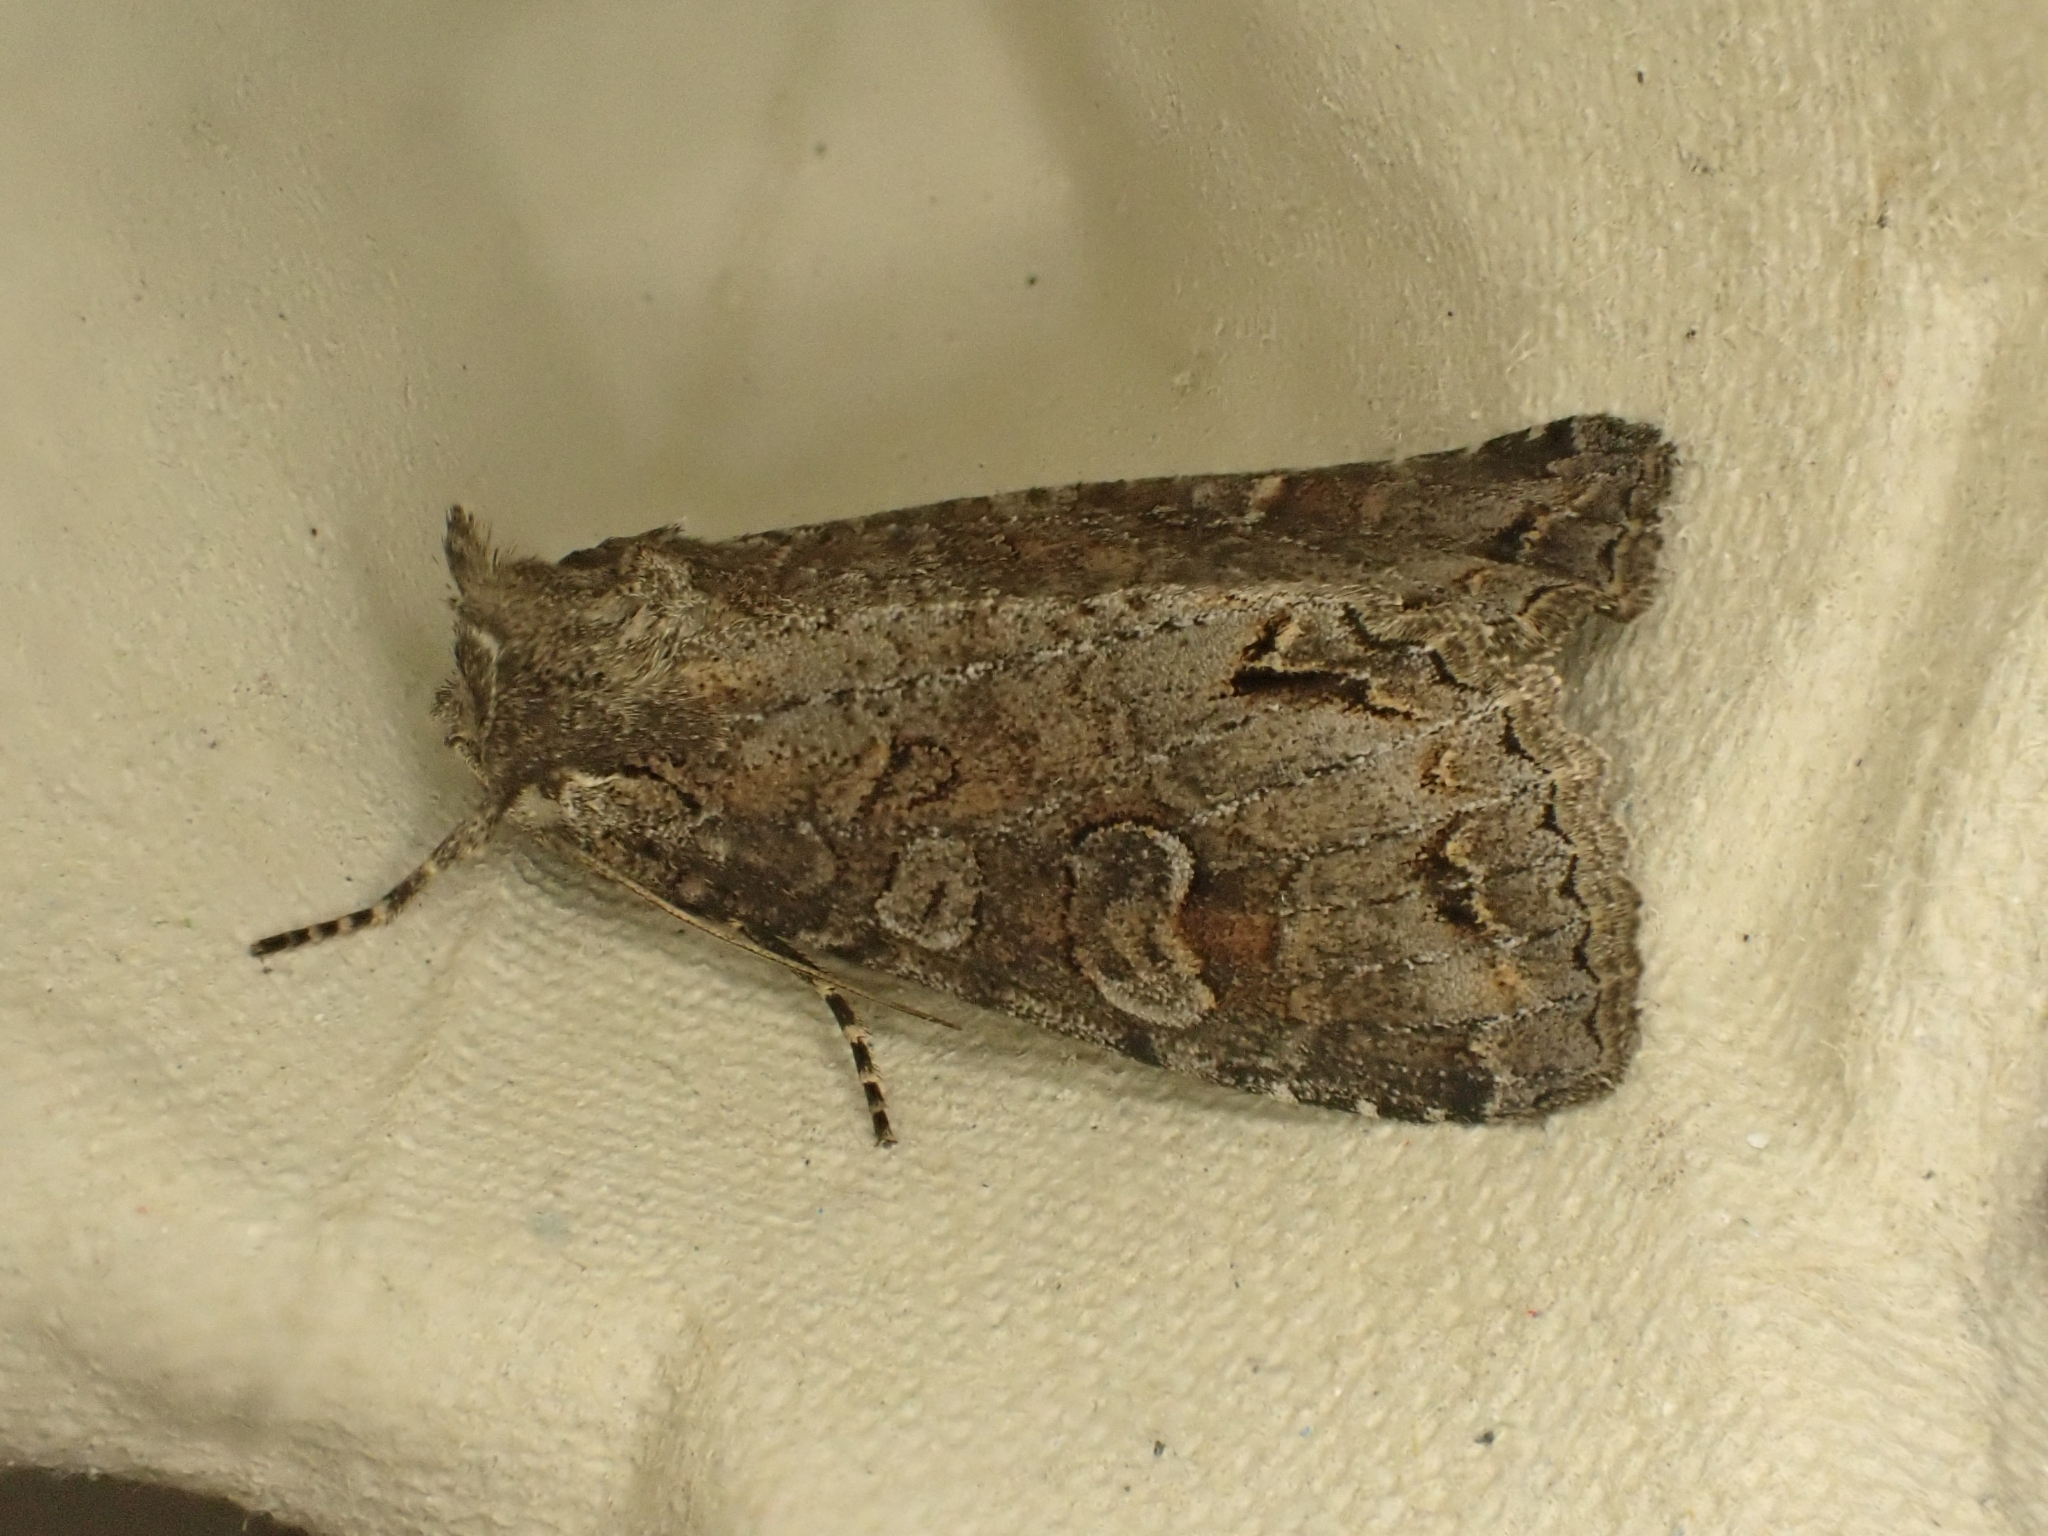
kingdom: Animalia
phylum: Arthropoda
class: Insecta
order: Lepidoptera
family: Noctuidae
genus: Polia
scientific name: Polia hepatica
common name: Silvery arches
